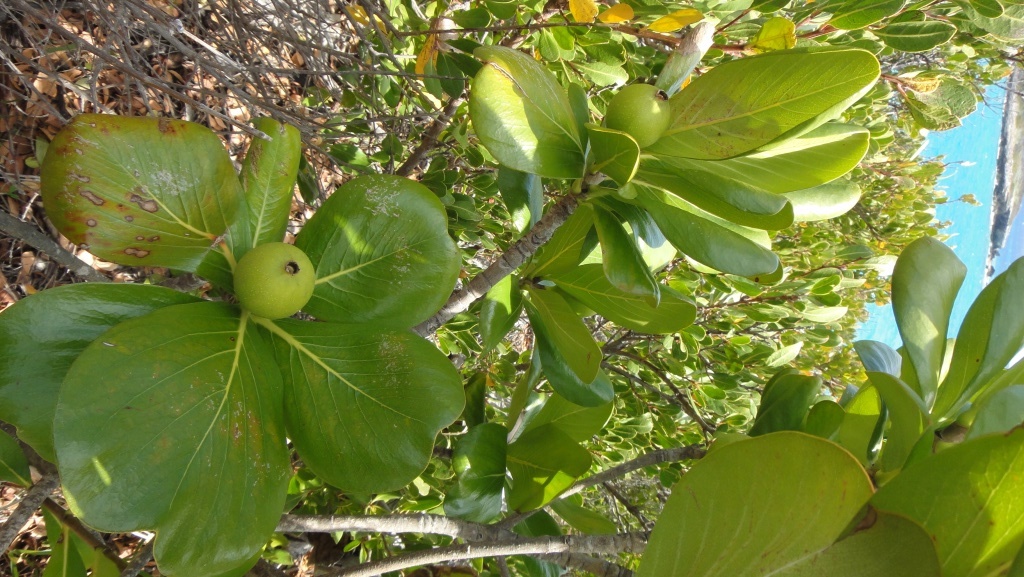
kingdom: Plantae
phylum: Tracheophyta
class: Magnoliopsida
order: Gentianales
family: Rubiaceae
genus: Casasia
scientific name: Casasia clusiifolia
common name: Seven-year apple
